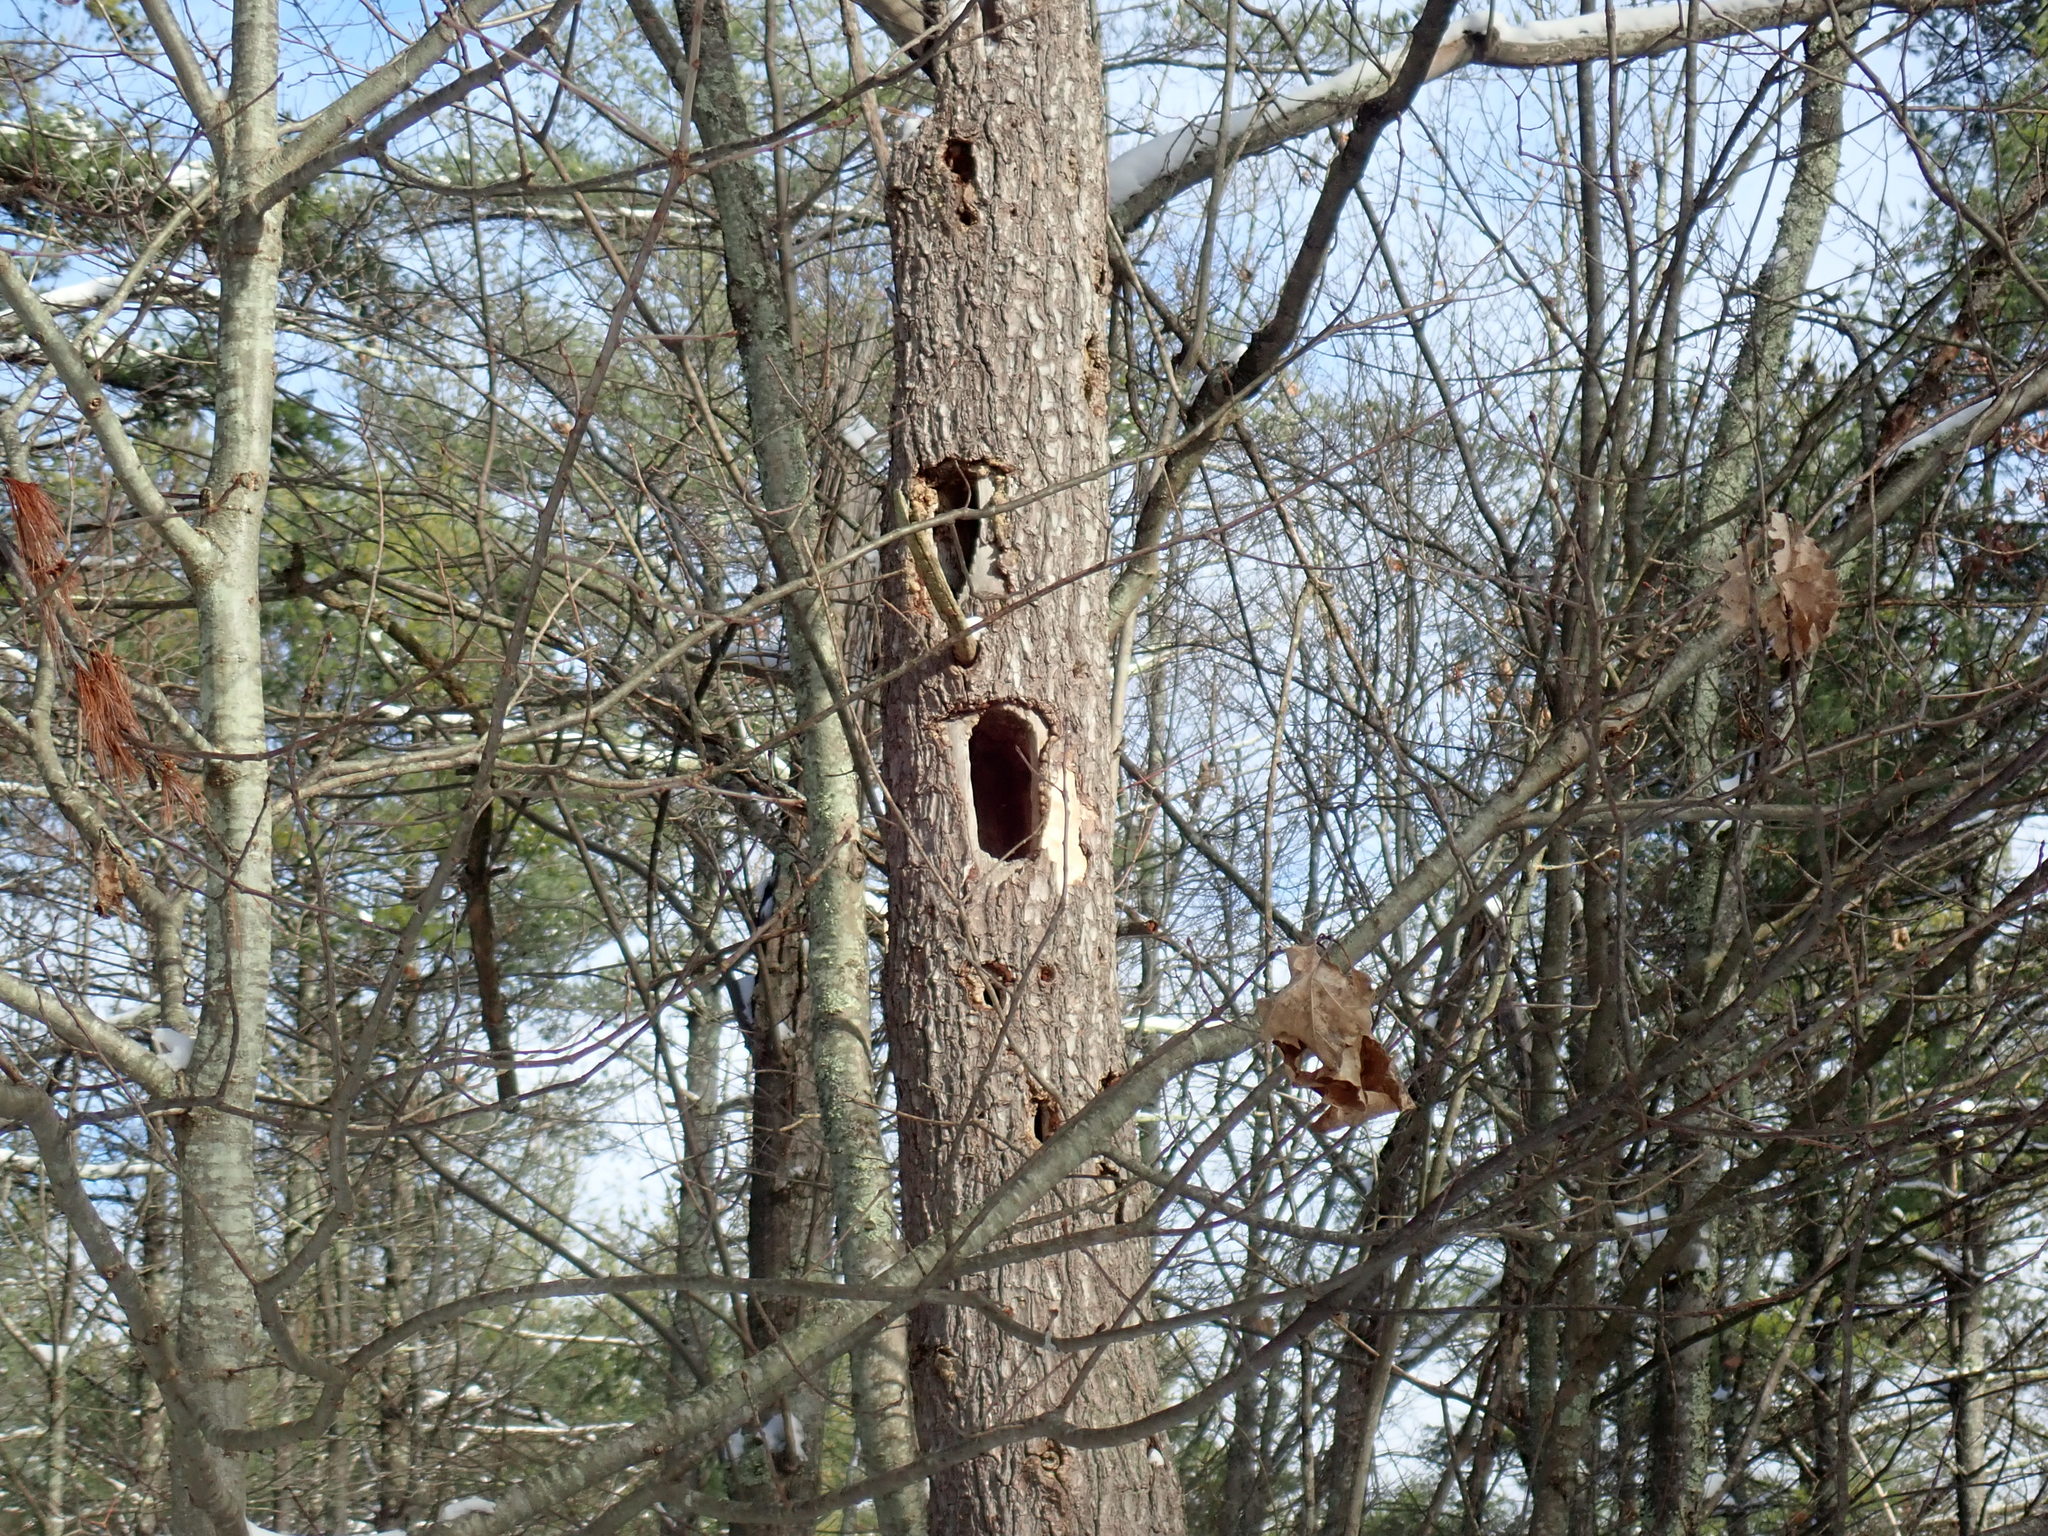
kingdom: Animalia
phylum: Chordata
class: Aves
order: Piciformes
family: Picidae
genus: Dryocopus
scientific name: Dryocopus pileatus
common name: Pileated woodpecker
